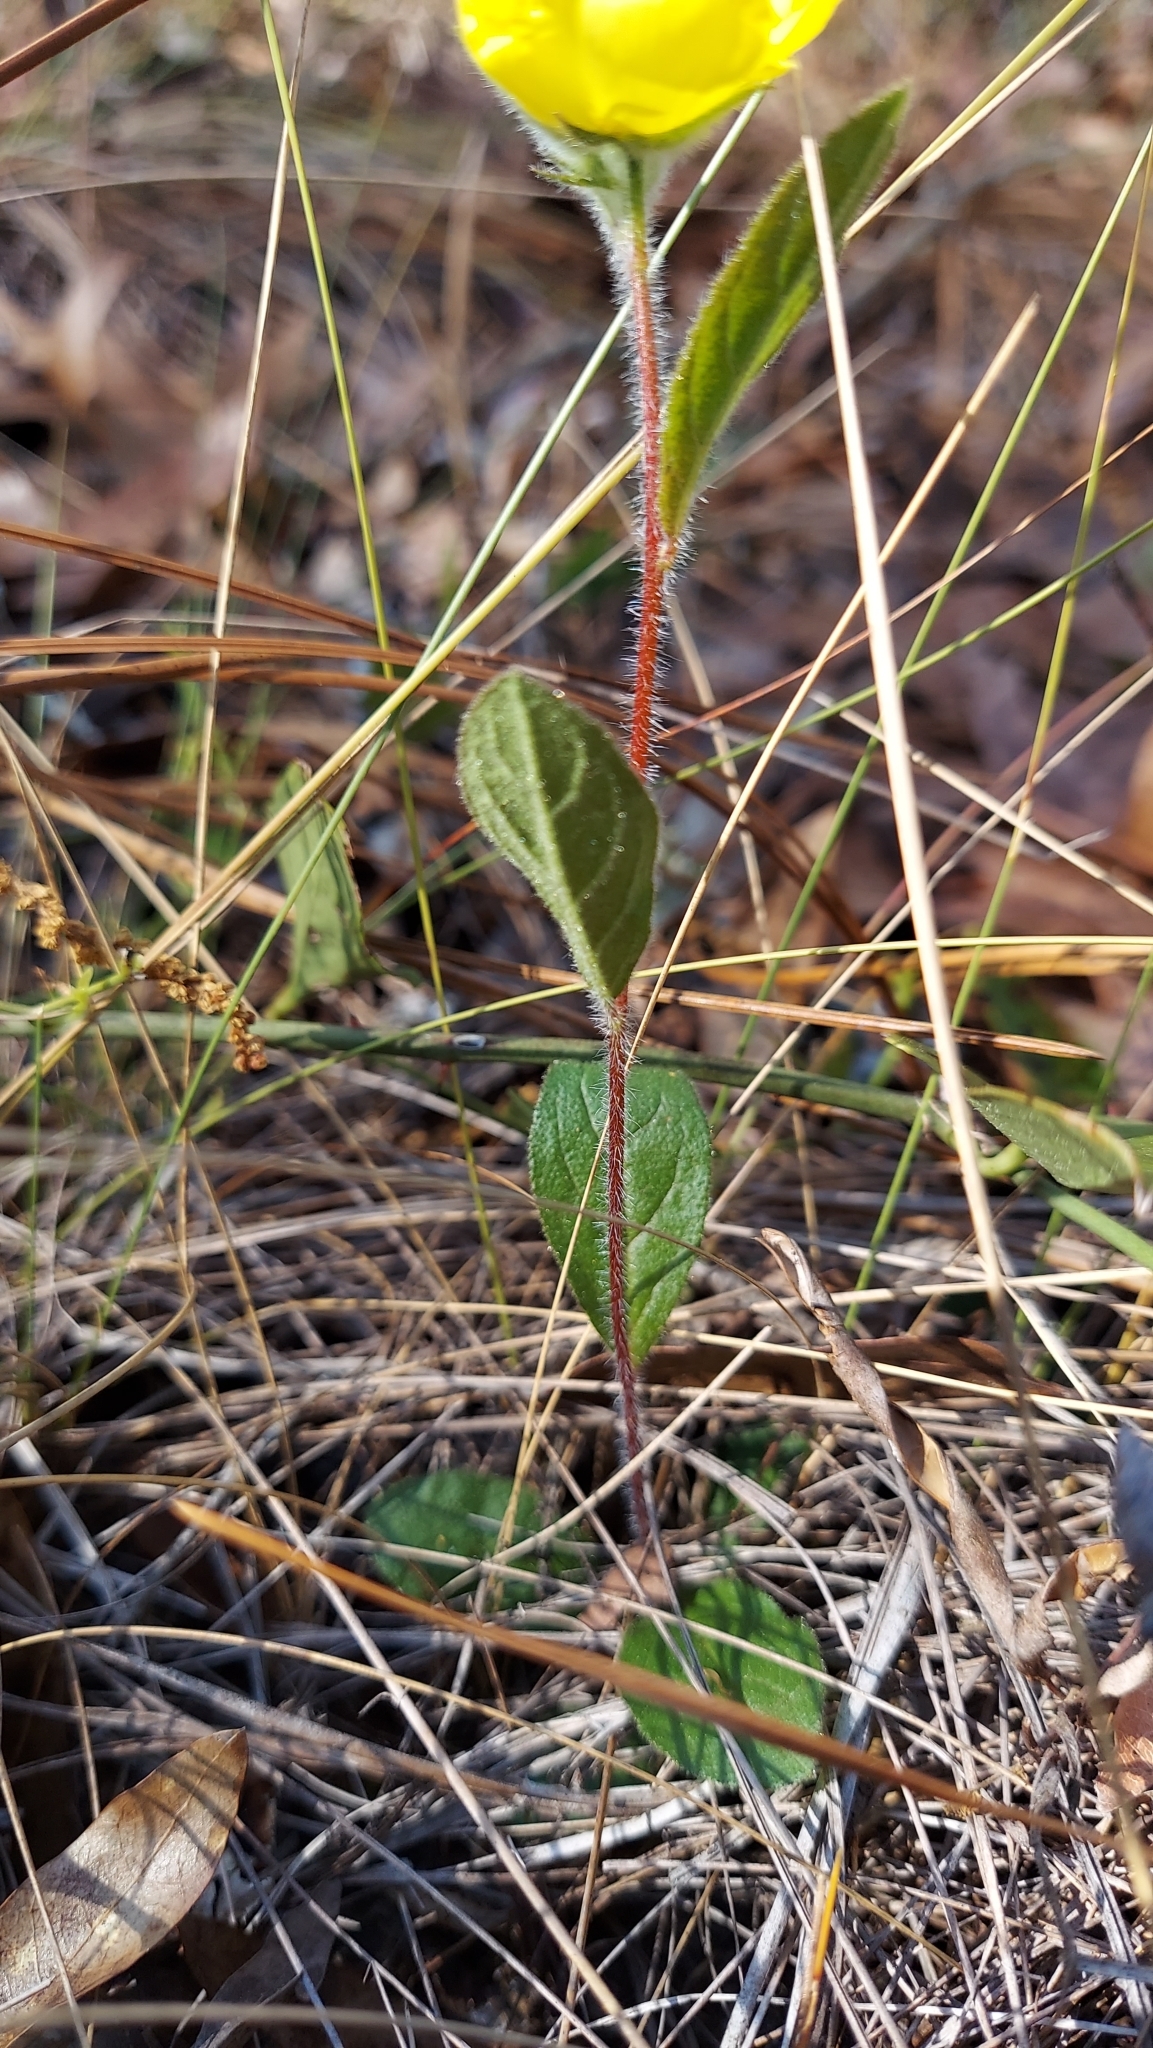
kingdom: Plantae
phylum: Tracheophyta
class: Magnoliopsida
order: Malvales
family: Cistaceae
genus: Crocanthemum
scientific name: Crocanthemum carolinianum
